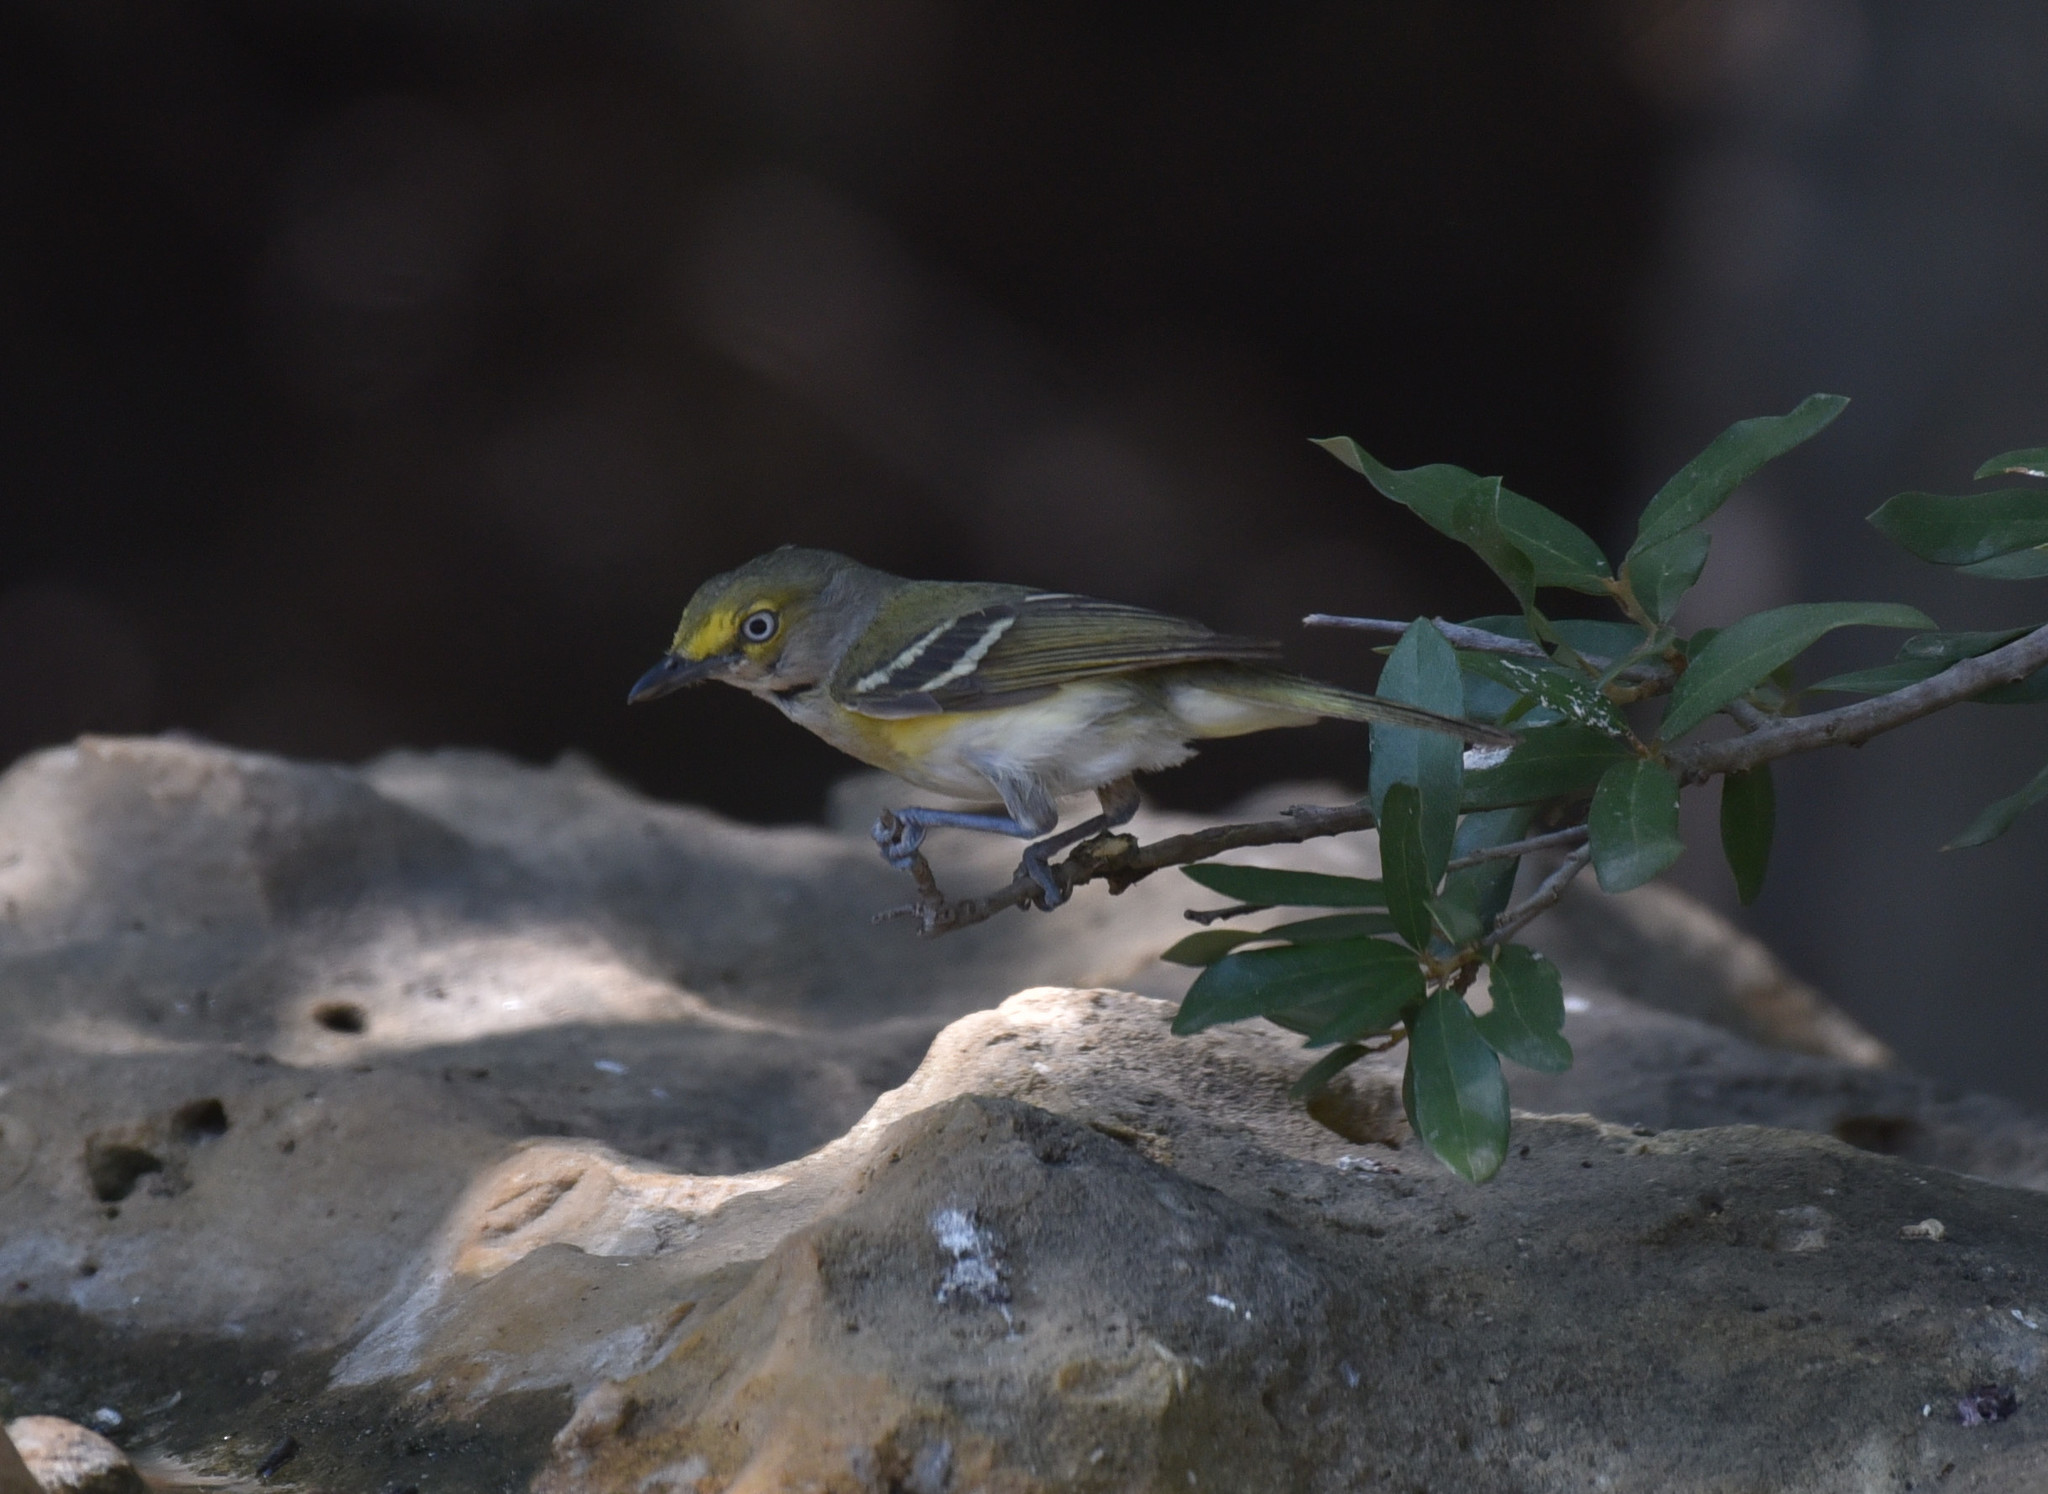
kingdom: Animalia
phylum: Chordata
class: Aves
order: Passeriformes
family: Vireonidae
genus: Vireo
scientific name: Vireo griseus
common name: White-eyed vireo
